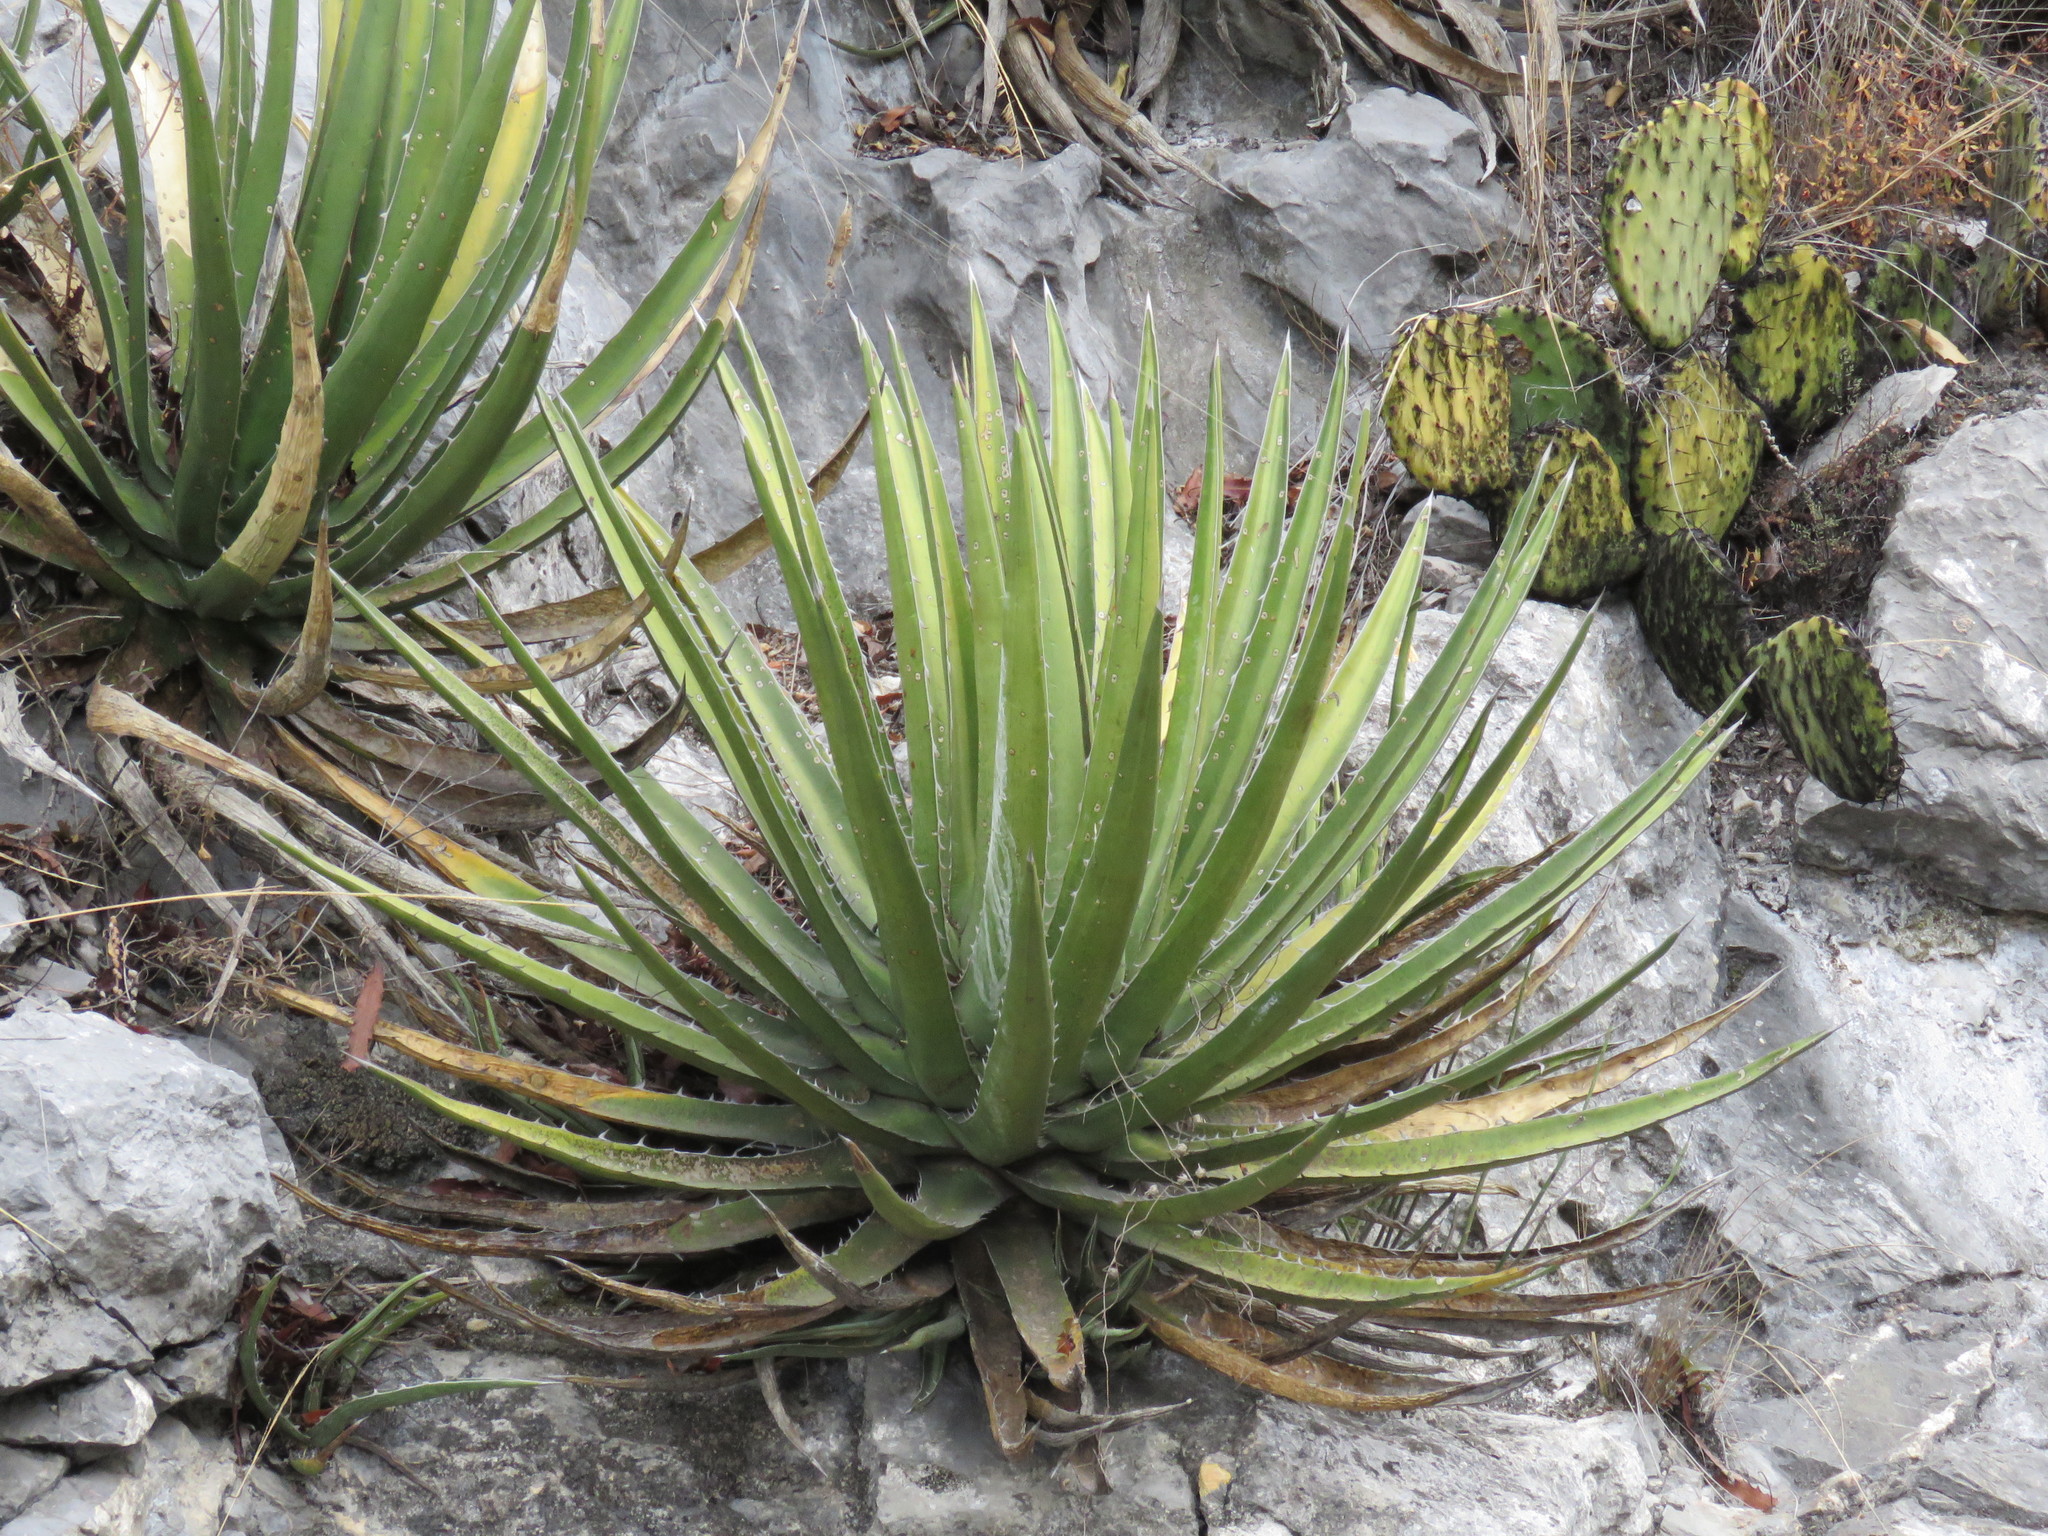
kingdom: Plantae
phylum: Tracheophyta
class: Liliopsida
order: Asparagales
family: Asparagaceae
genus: Agave
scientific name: Agave albomarginata
